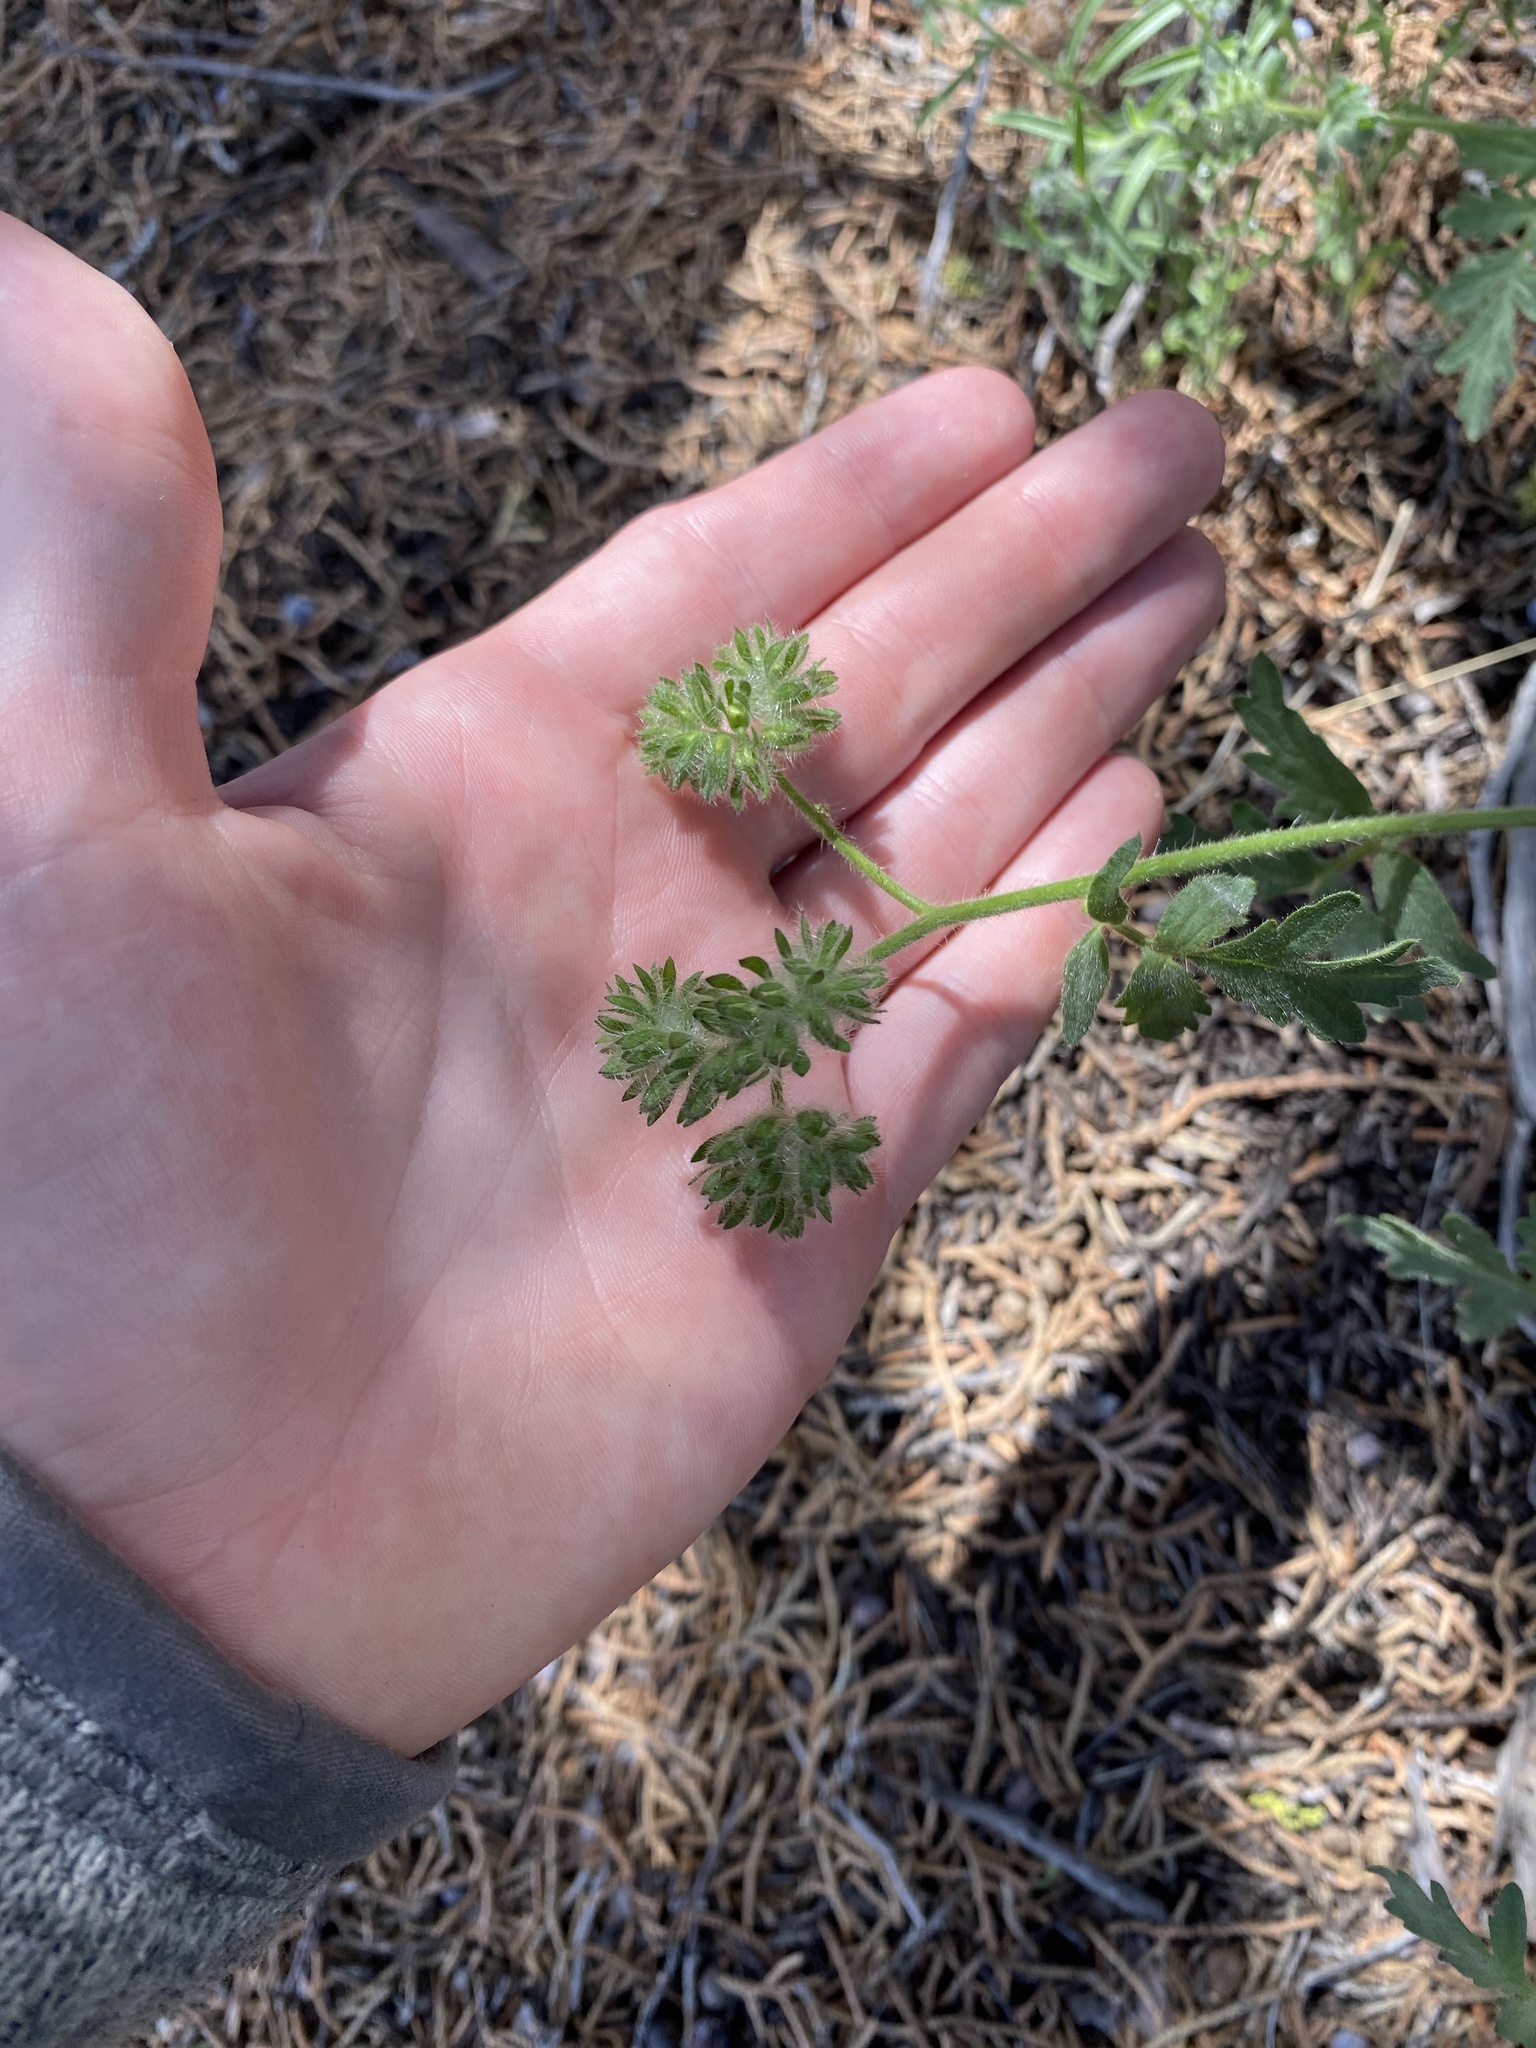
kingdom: Plantae
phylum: Tracheophyta
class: Magnoliopsida
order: Boraginales
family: Hydrophyllaceae
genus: Phacelia
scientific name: Phacelia ramosissima
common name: Branching phacelia
